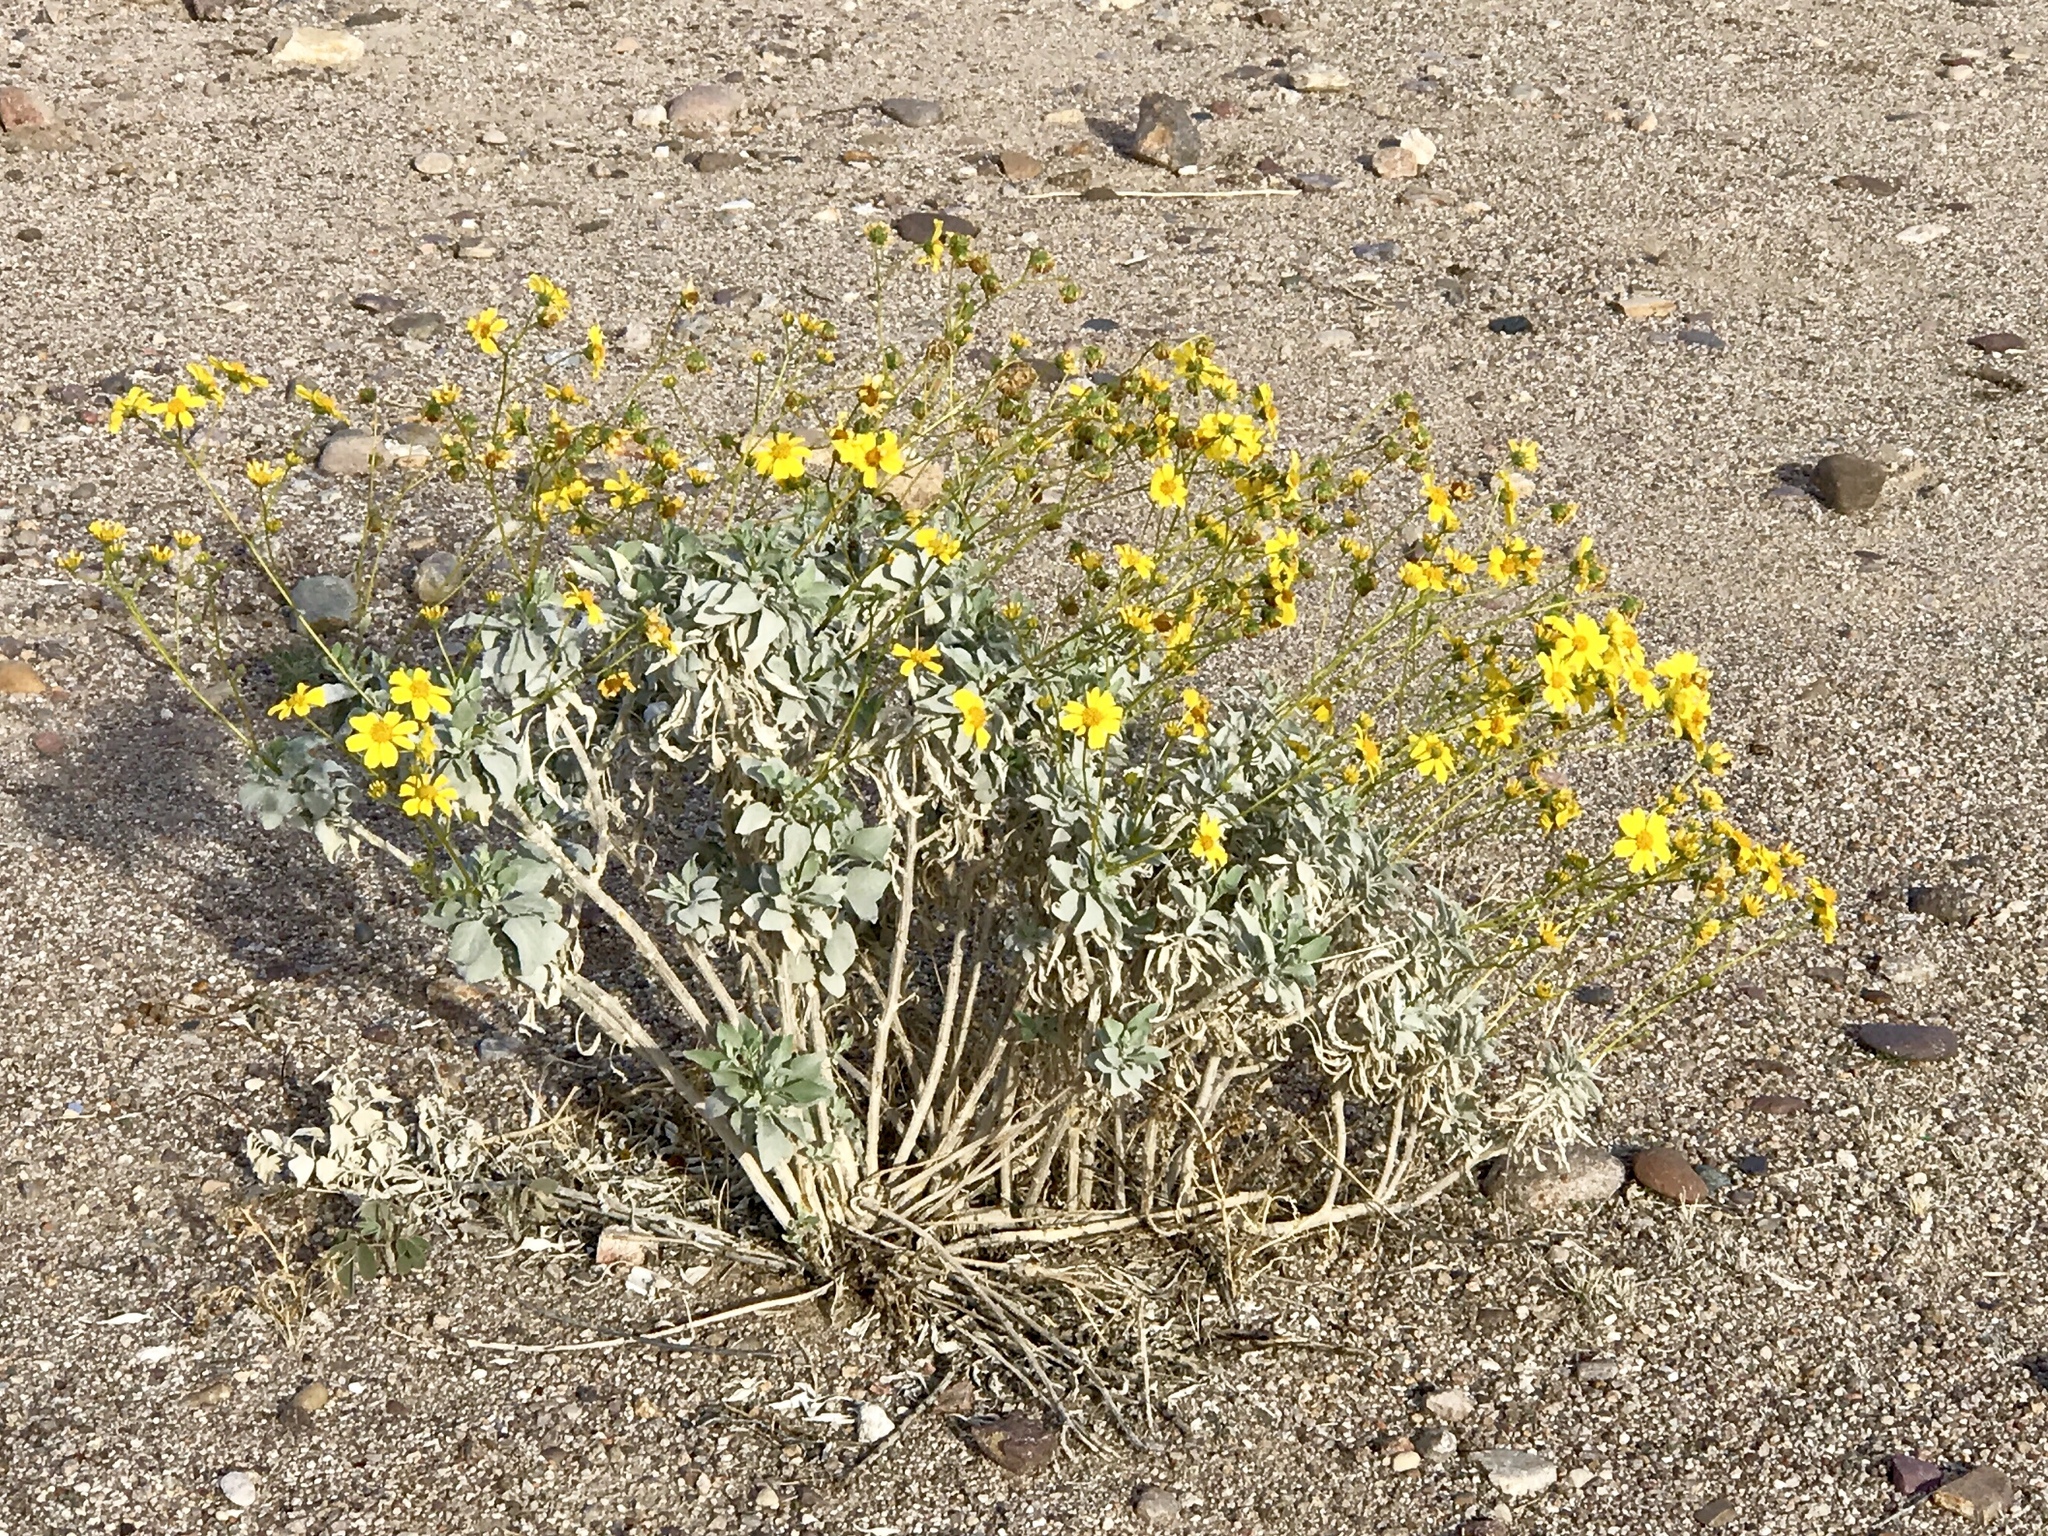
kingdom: Plantae
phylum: Tracheophyta
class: Magnoliopsida
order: Asterales
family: Asteraceae
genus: Encelia
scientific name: Encelia farinosa
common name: Brittlebush
